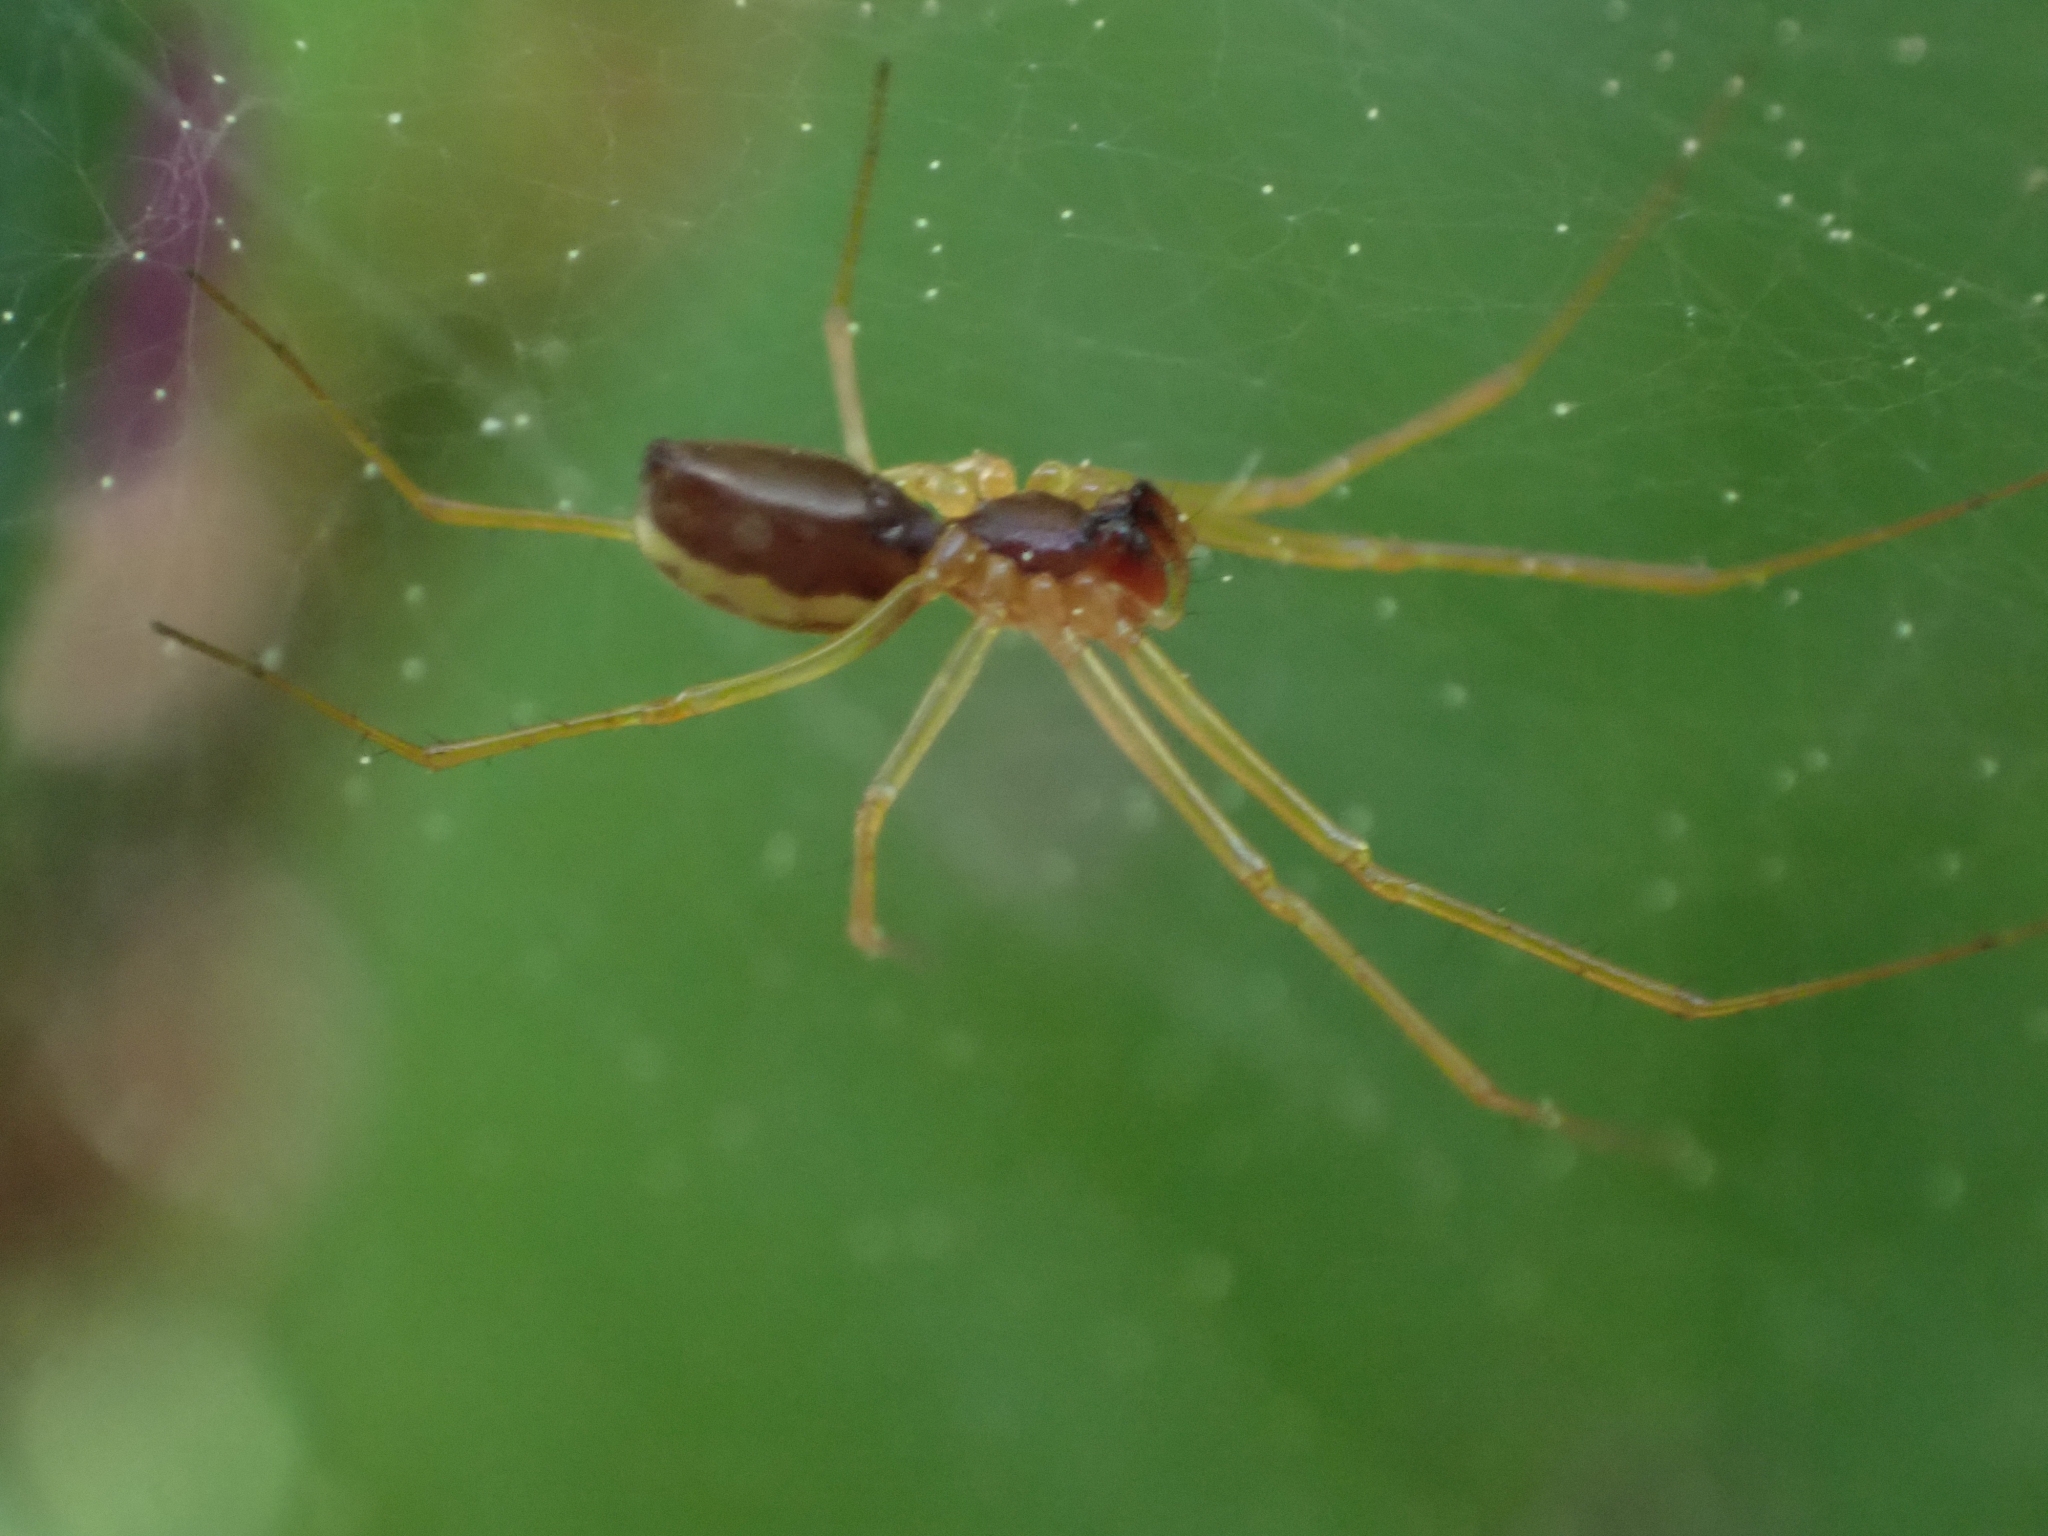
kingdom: Animalia
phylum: Arthropoda
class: Arachnida
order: Araneae
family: Linyphiidae
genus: Microlinyphia
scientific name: Microlinyphia dana
